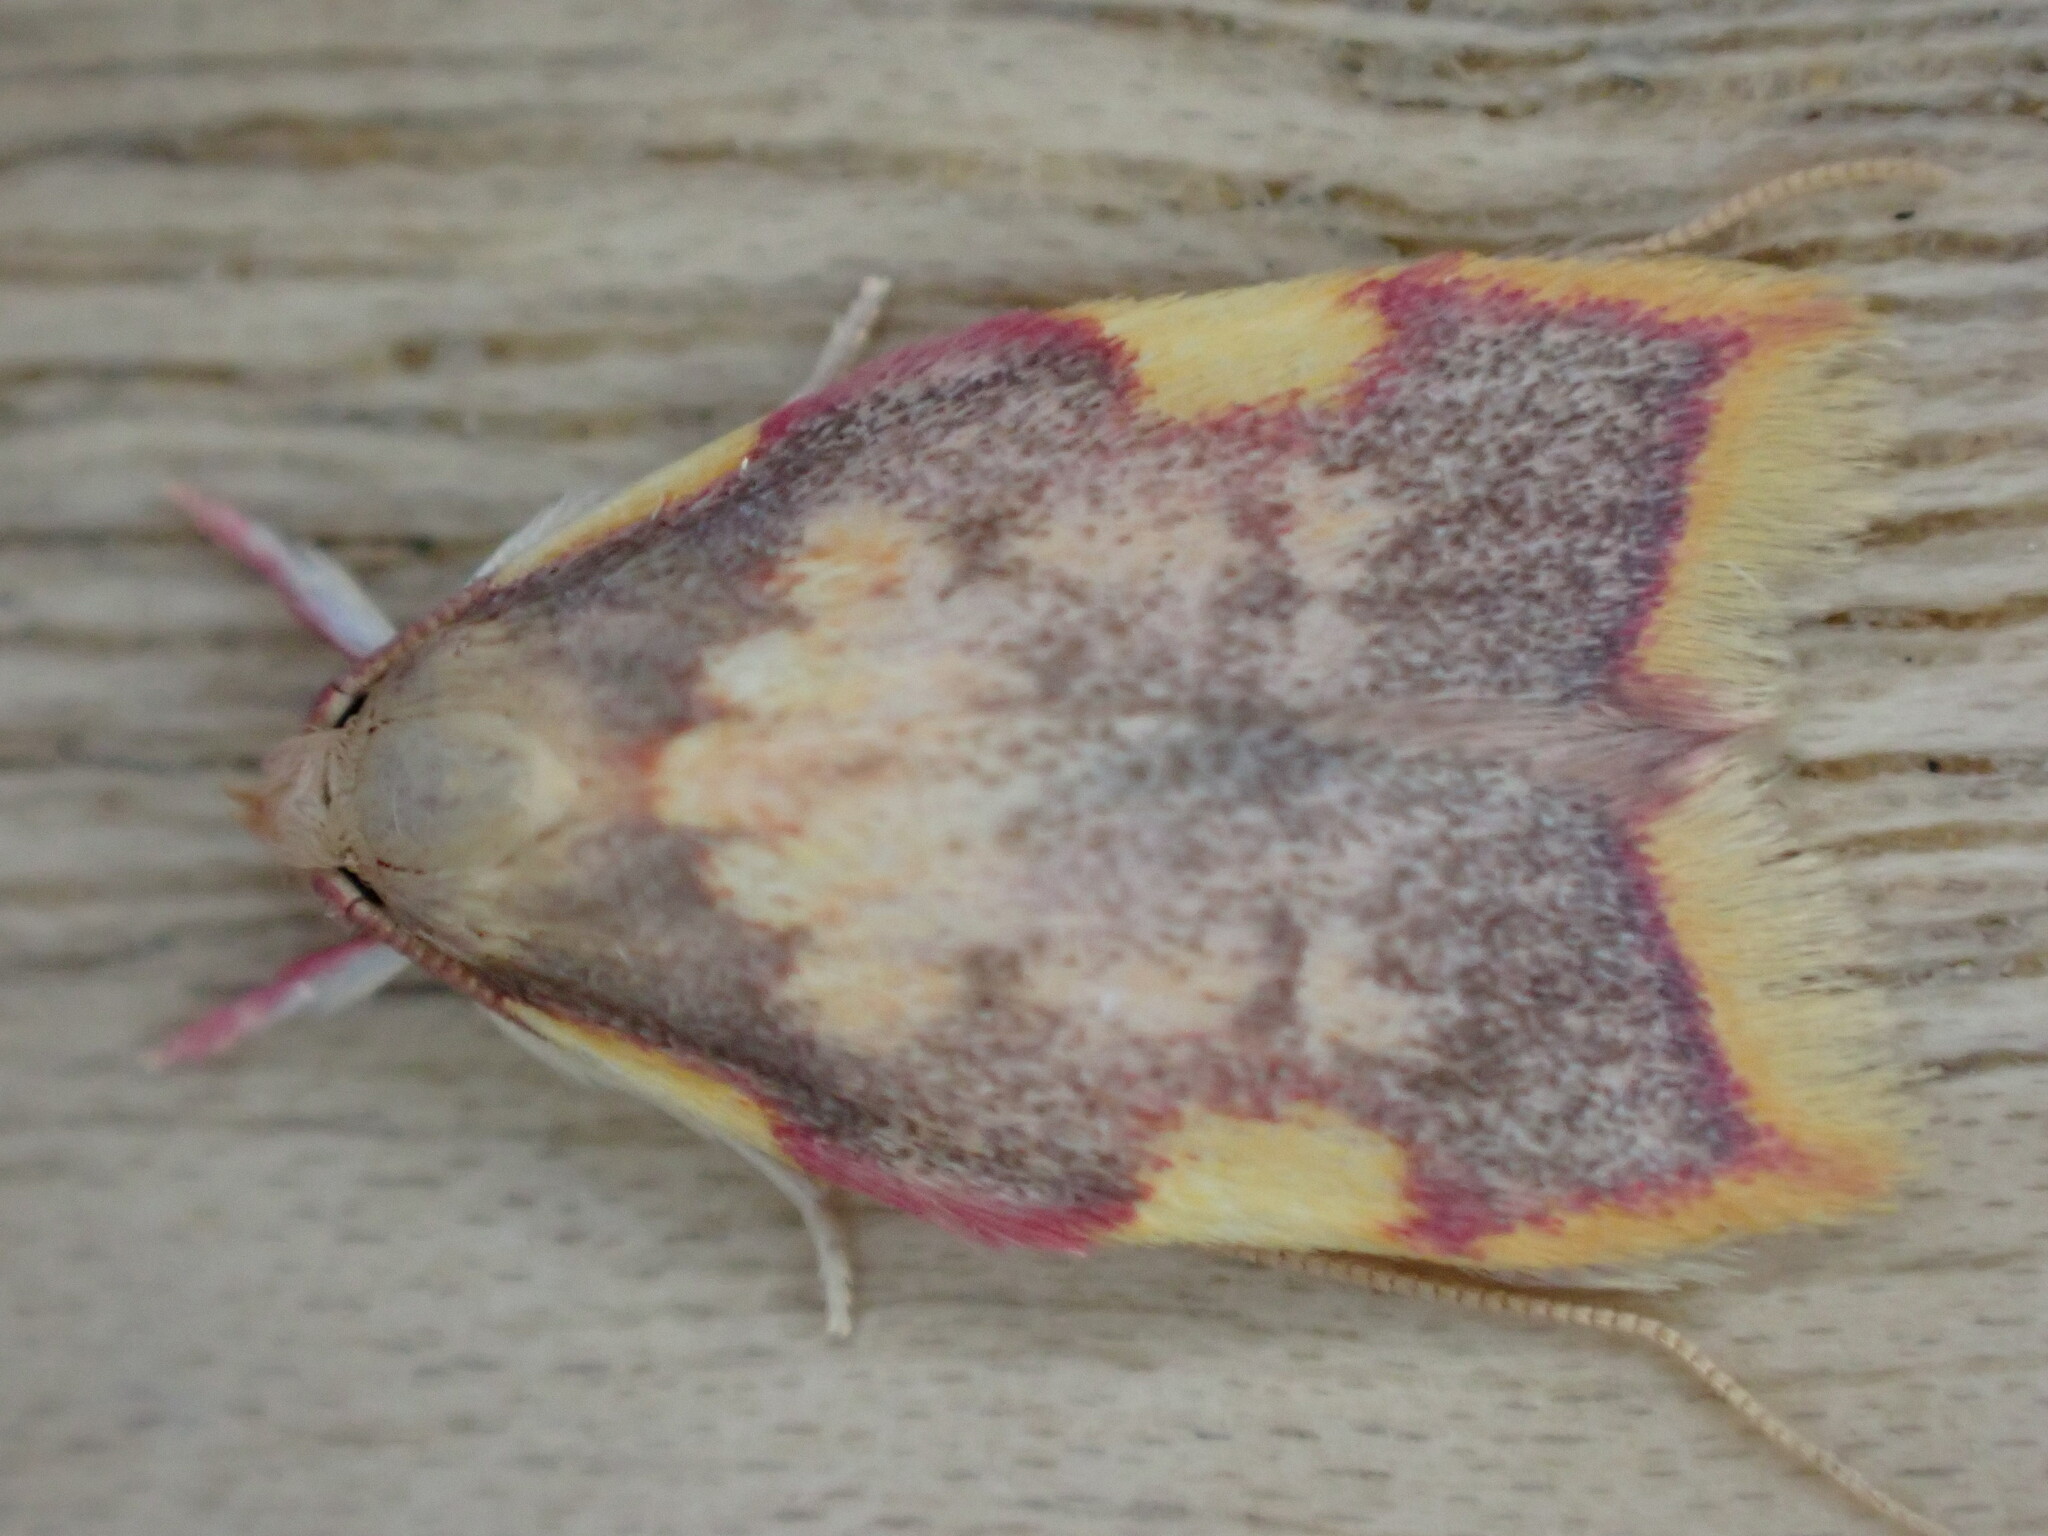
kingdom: Animalia
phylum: Arthropoda
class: Insecta
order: Lepidoptera
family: Peleopodidae
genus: Carcina
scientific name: Carcina quercana
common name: Moth
